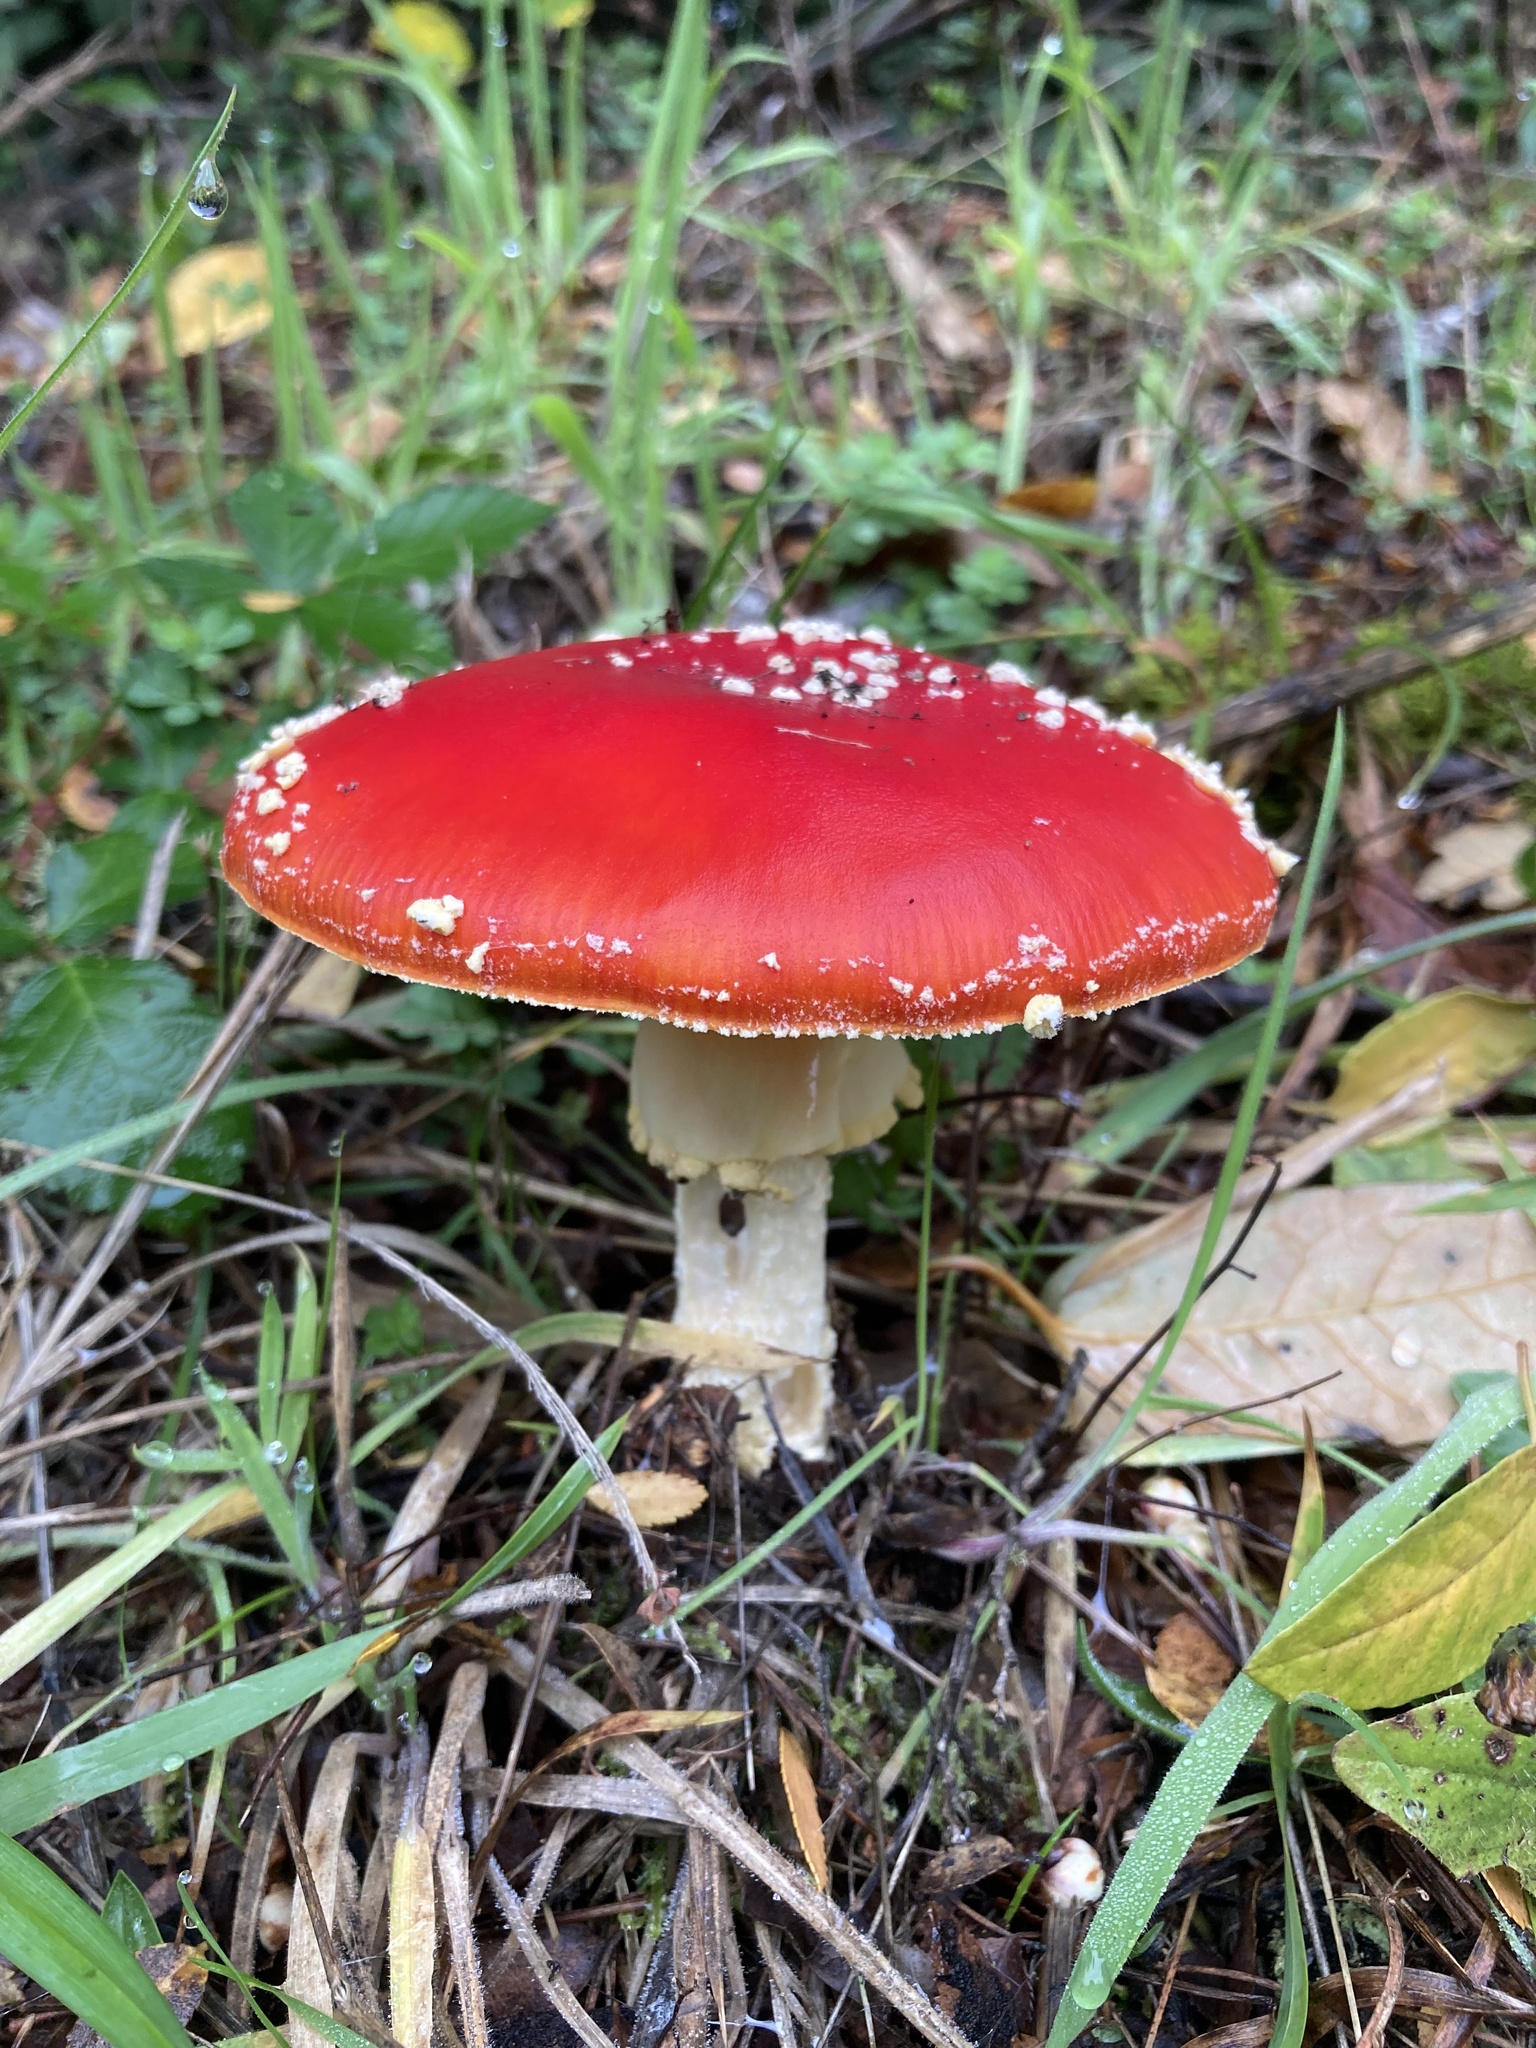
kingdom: Fungi
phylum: Basidiomycota
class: Agaricomycetes
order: Agaricales
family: Amanitaceae
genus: Amanita
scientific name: Amanita muscaria
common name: Fly agaric
